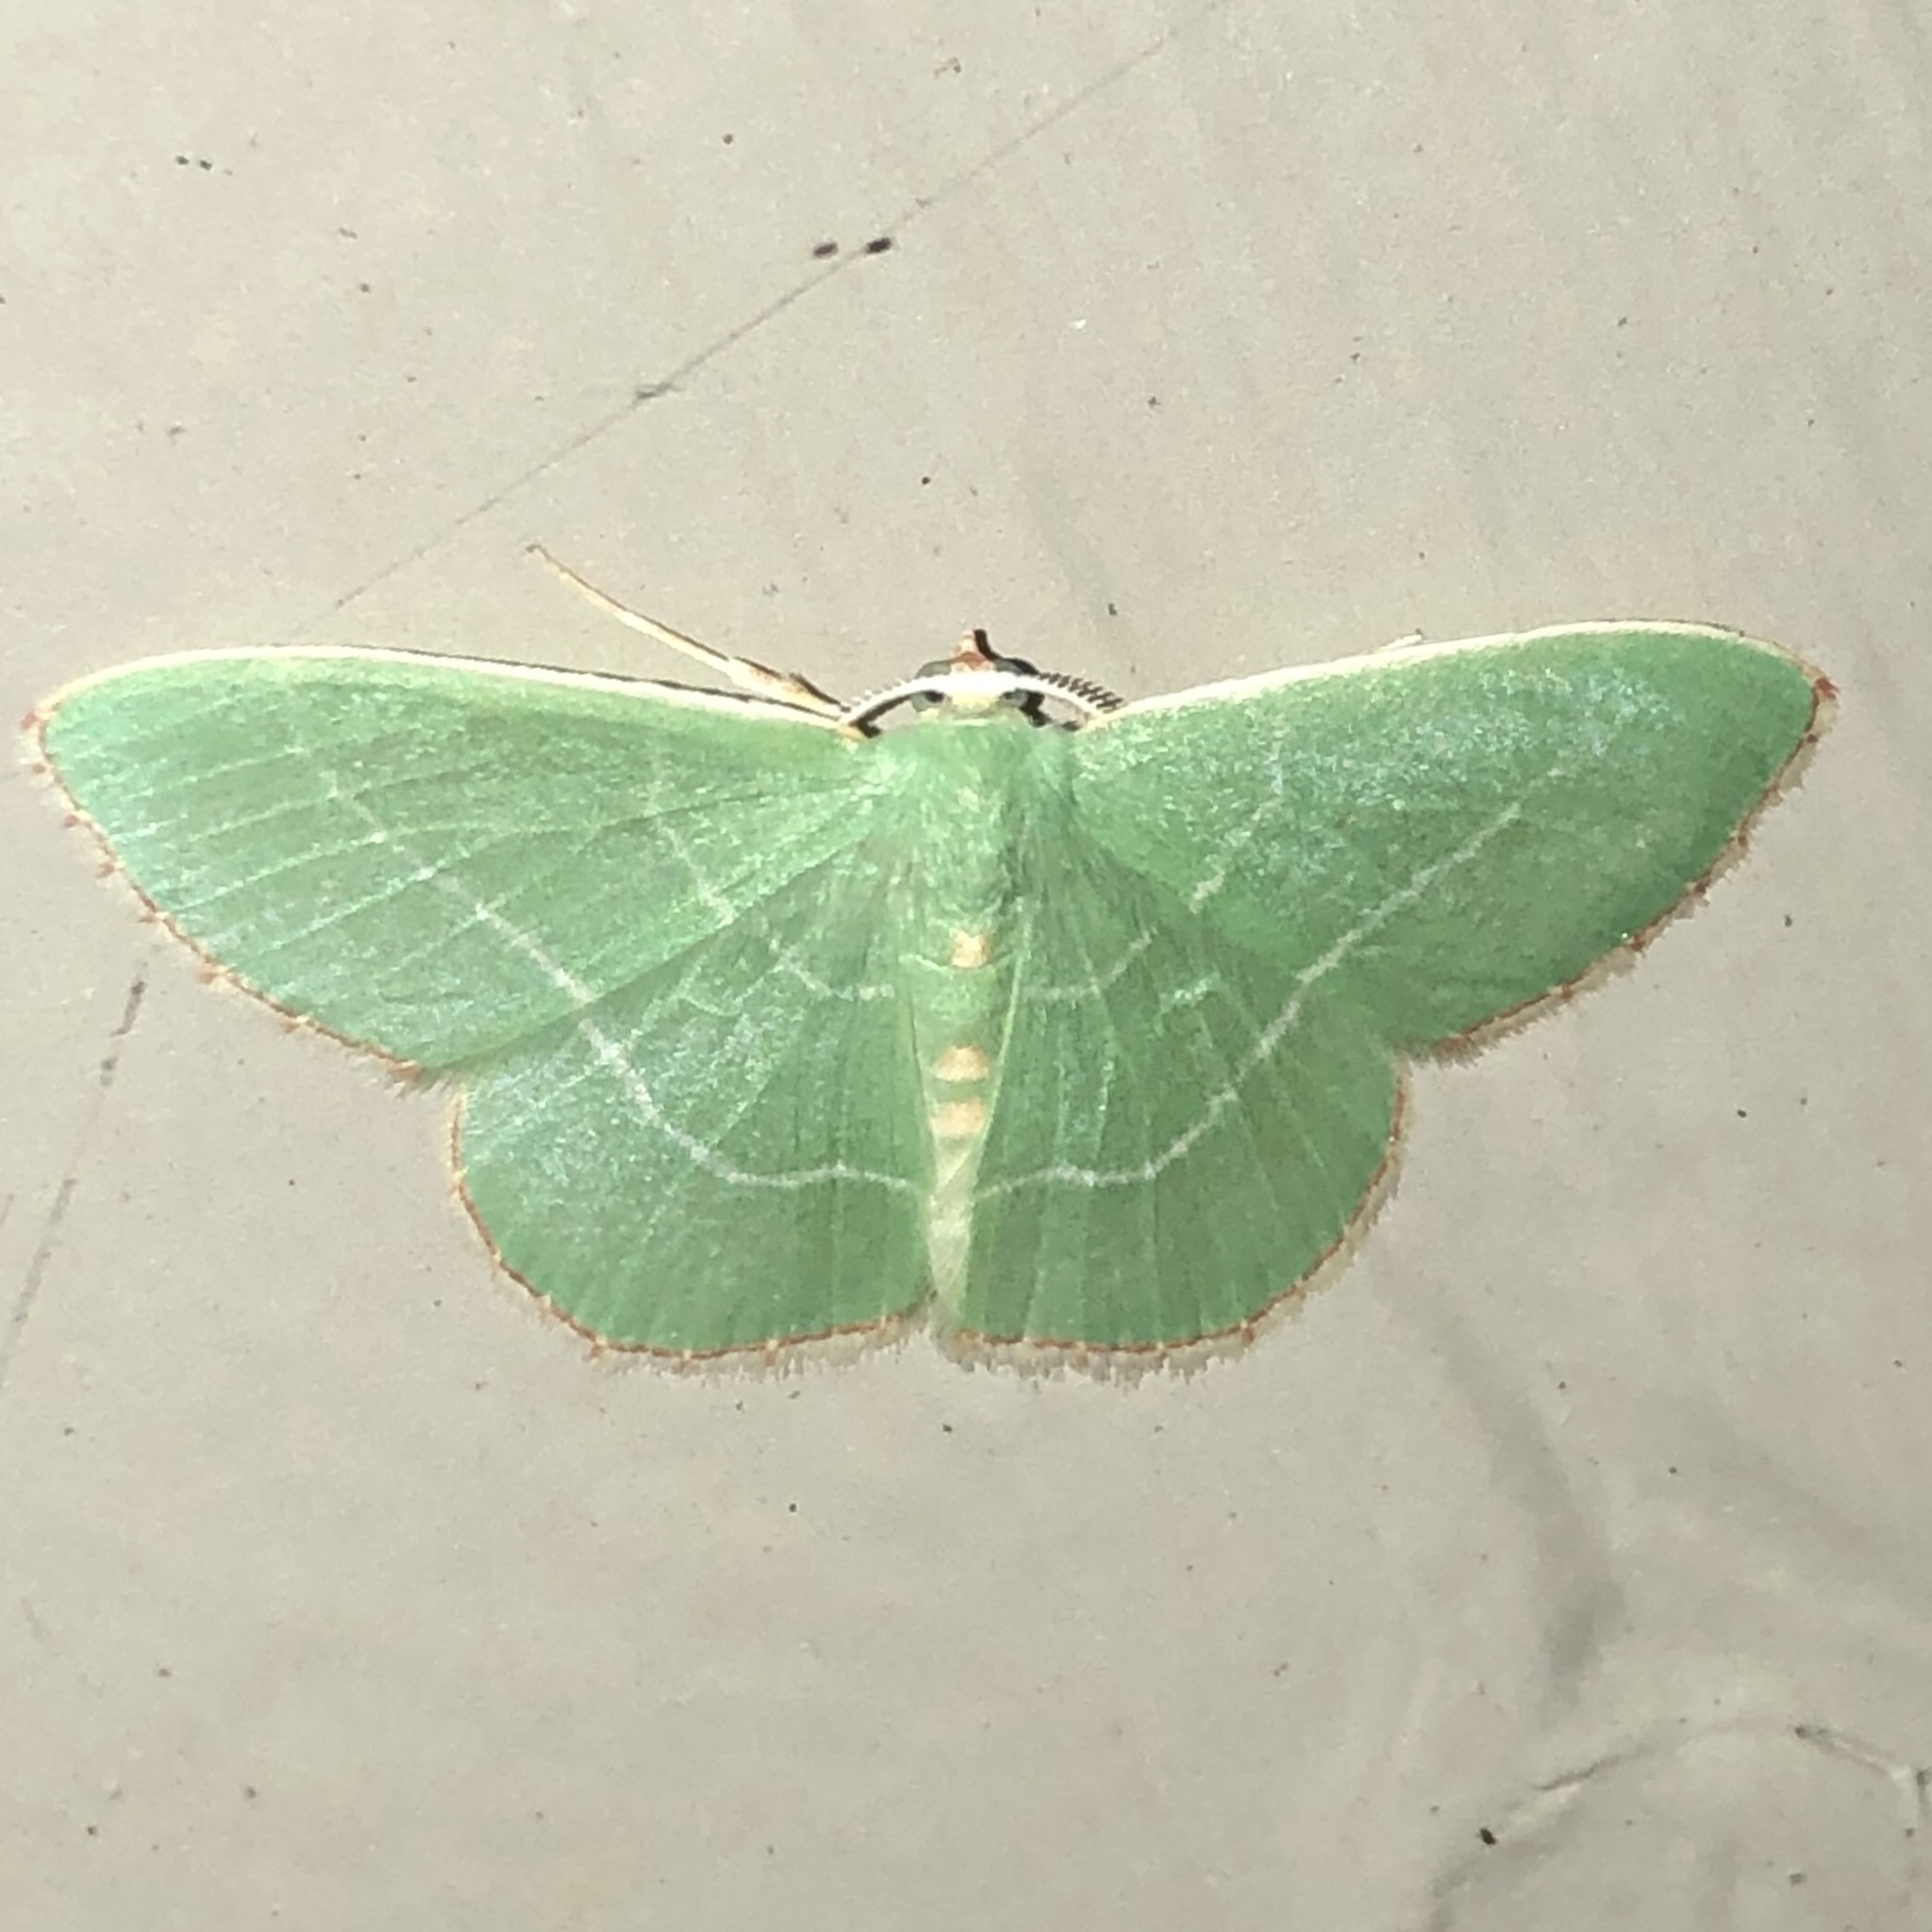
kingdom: Animalia
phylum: Arthropoda
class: Insecta
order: Lepidoptera
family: Geometridae
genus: Nemoria
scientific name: Nemoria bistriaria
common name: Red-fringed emerald
